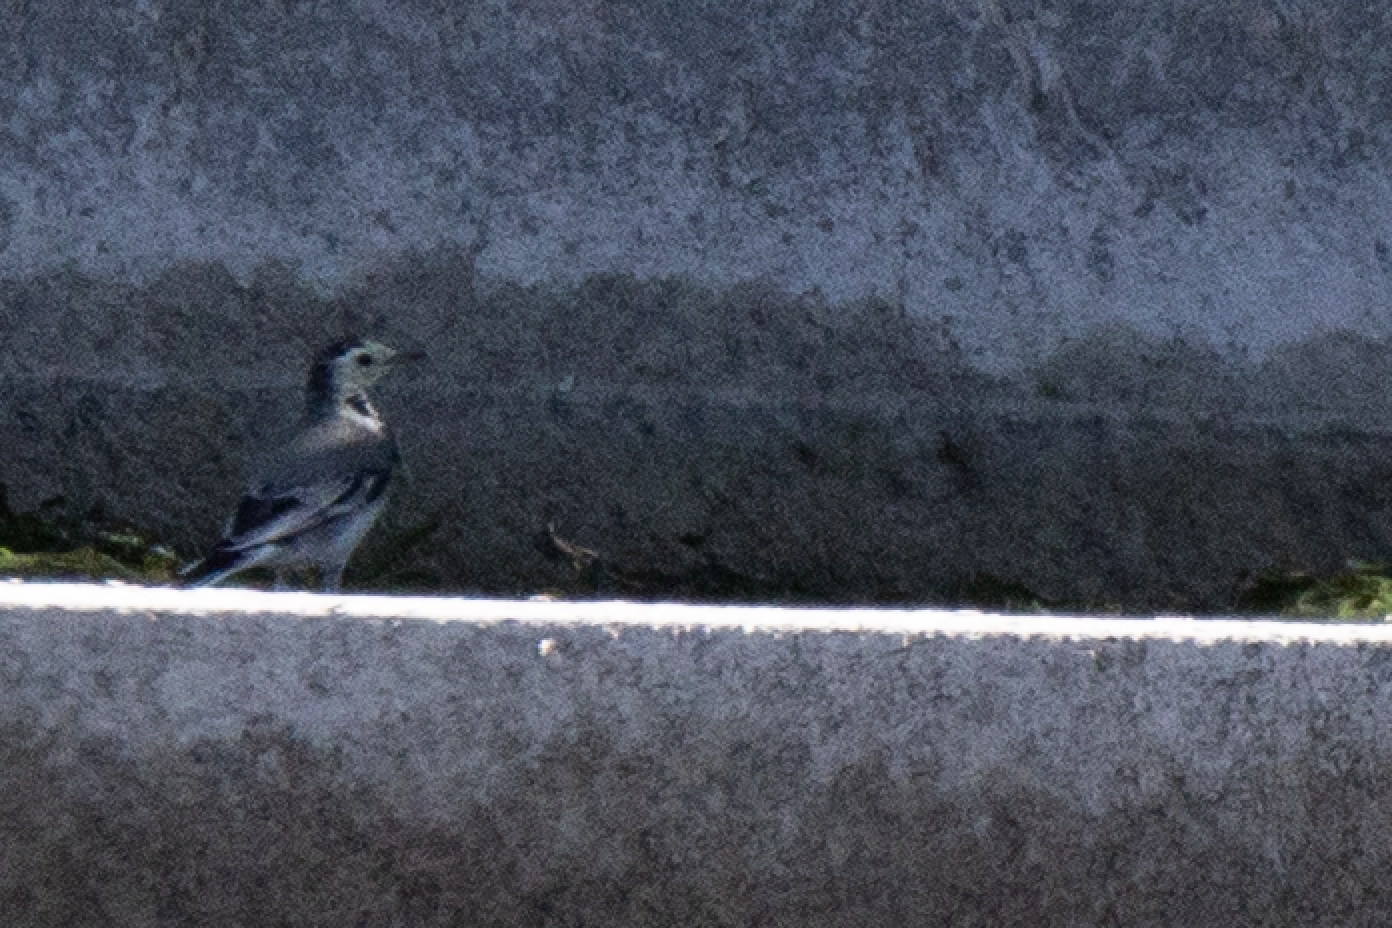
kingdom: Animalia
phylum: Chordata
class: Aves
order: Passeriformes
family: Motacillidae
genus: Motacilla
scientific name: Motacilla alba
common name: White wagtail
